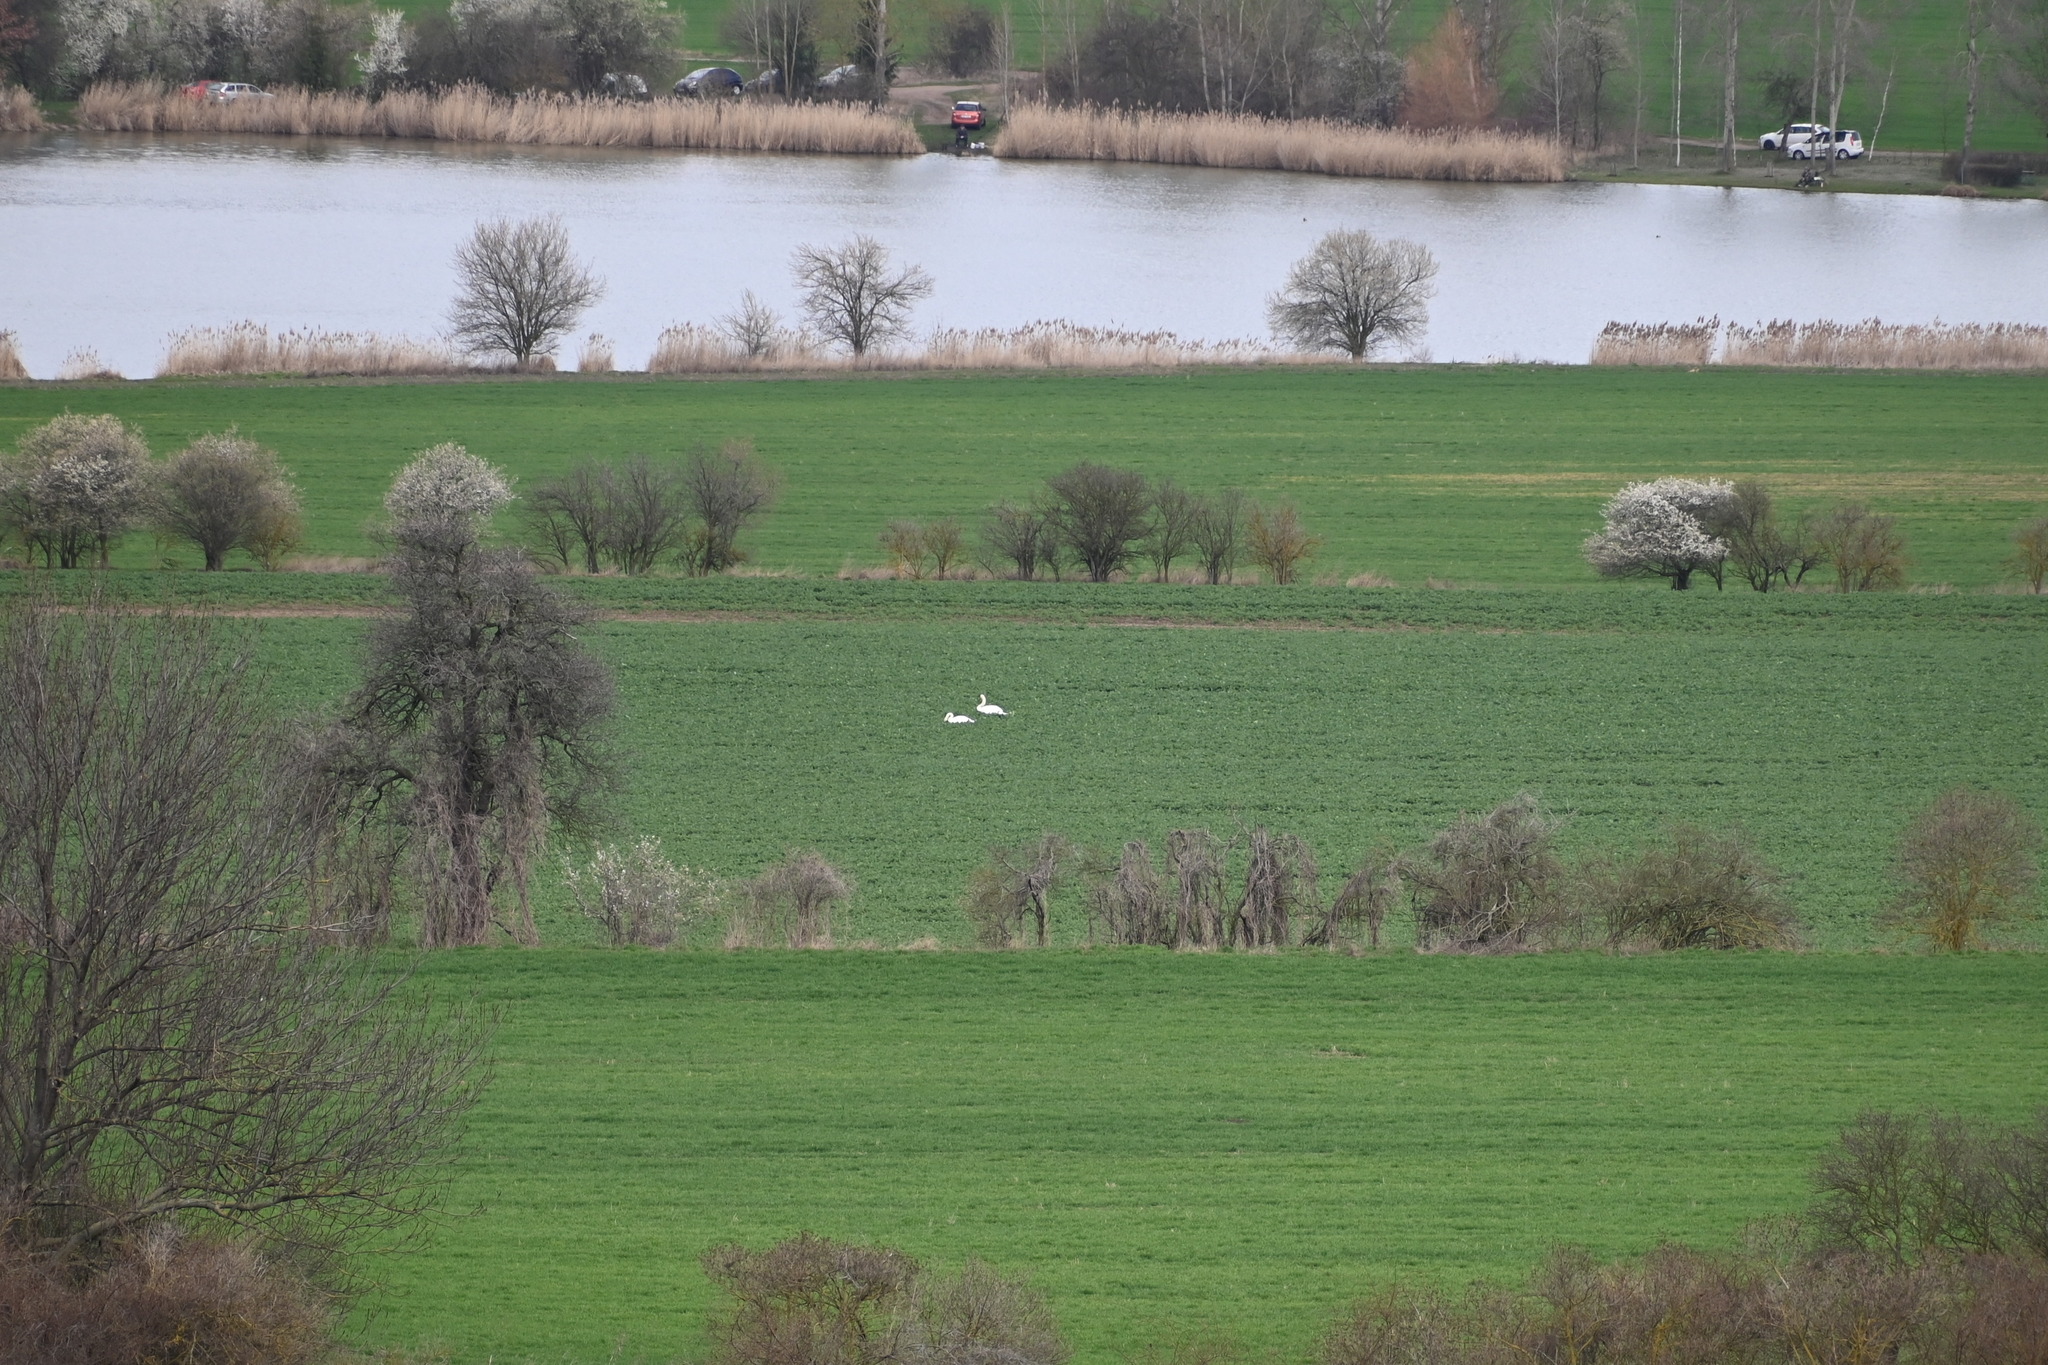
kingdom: Animalia
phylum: Chordata
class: Aves
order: Anseriformes
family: Anatidae
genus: Cygnus
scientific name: Cygnus olor
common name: Mute swan
